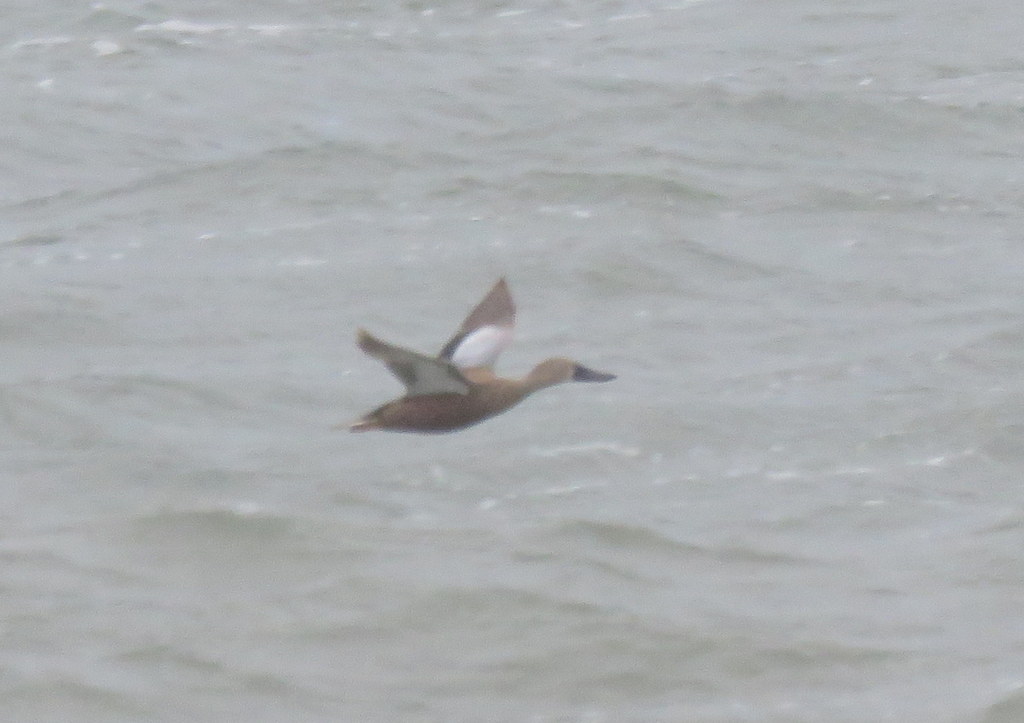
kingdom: Animalia
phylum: Chordata
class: Aves
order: Anseriformes
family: Anatidae
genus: Spatula
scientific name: Spatula platalea
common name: Red shoveler
